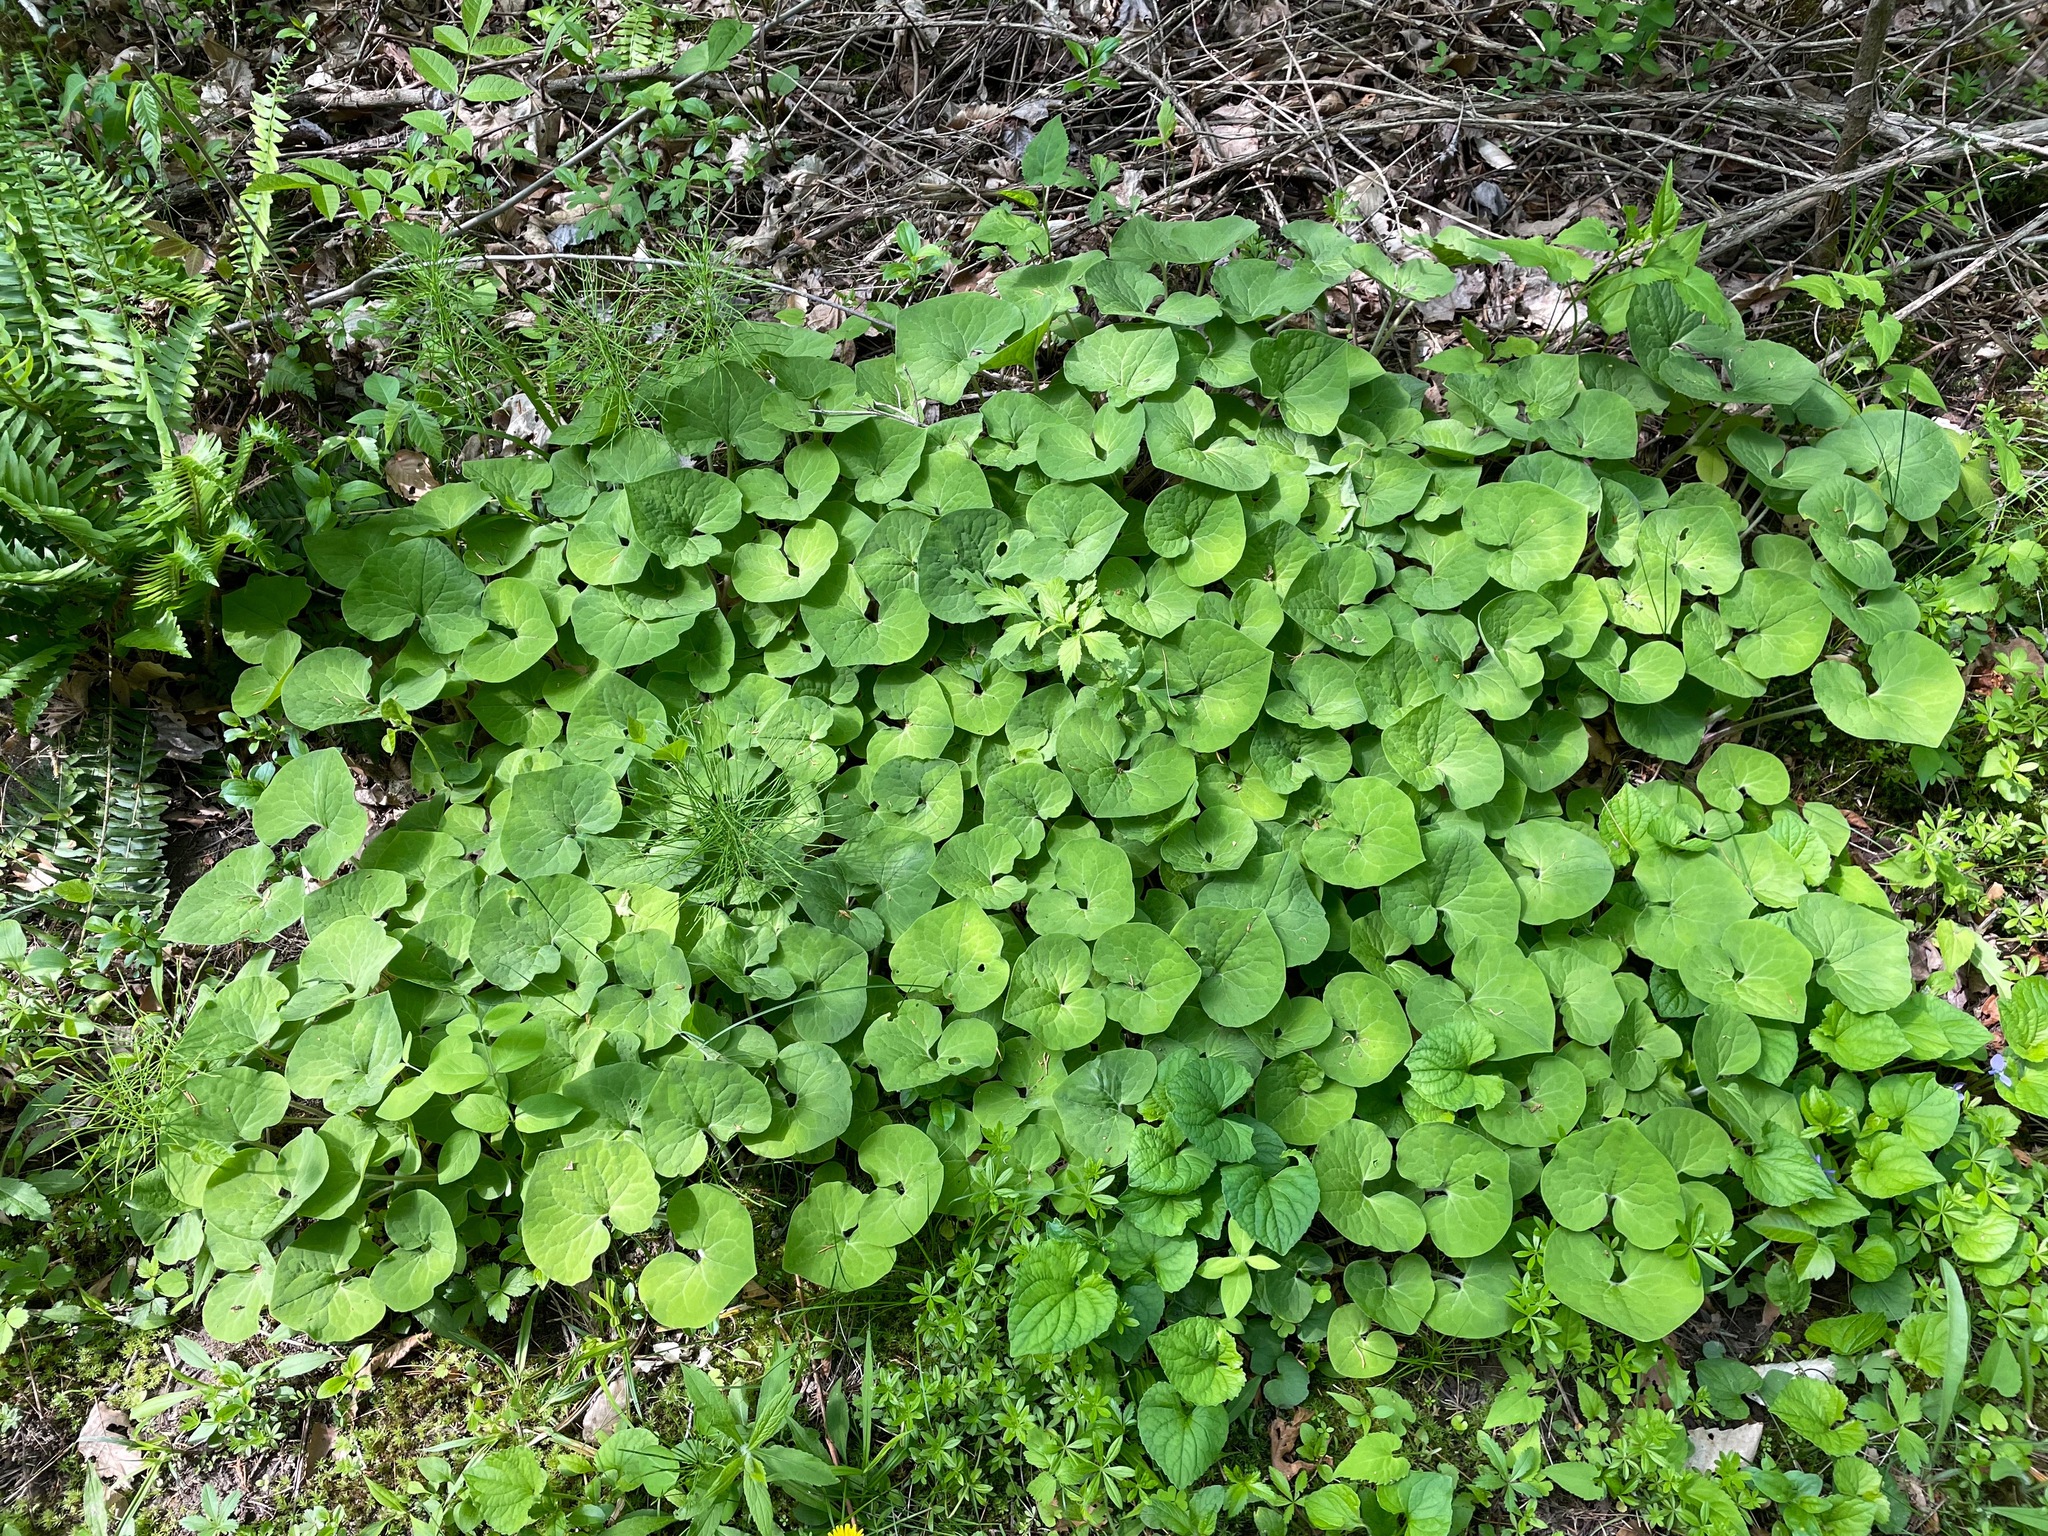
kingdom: Plantae
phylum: Tracheophyta
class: Magnoliopsida
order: Piperales
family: Aristolochiaceae
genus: Asarum
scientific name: Asarum canadense
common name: Wild ginger
